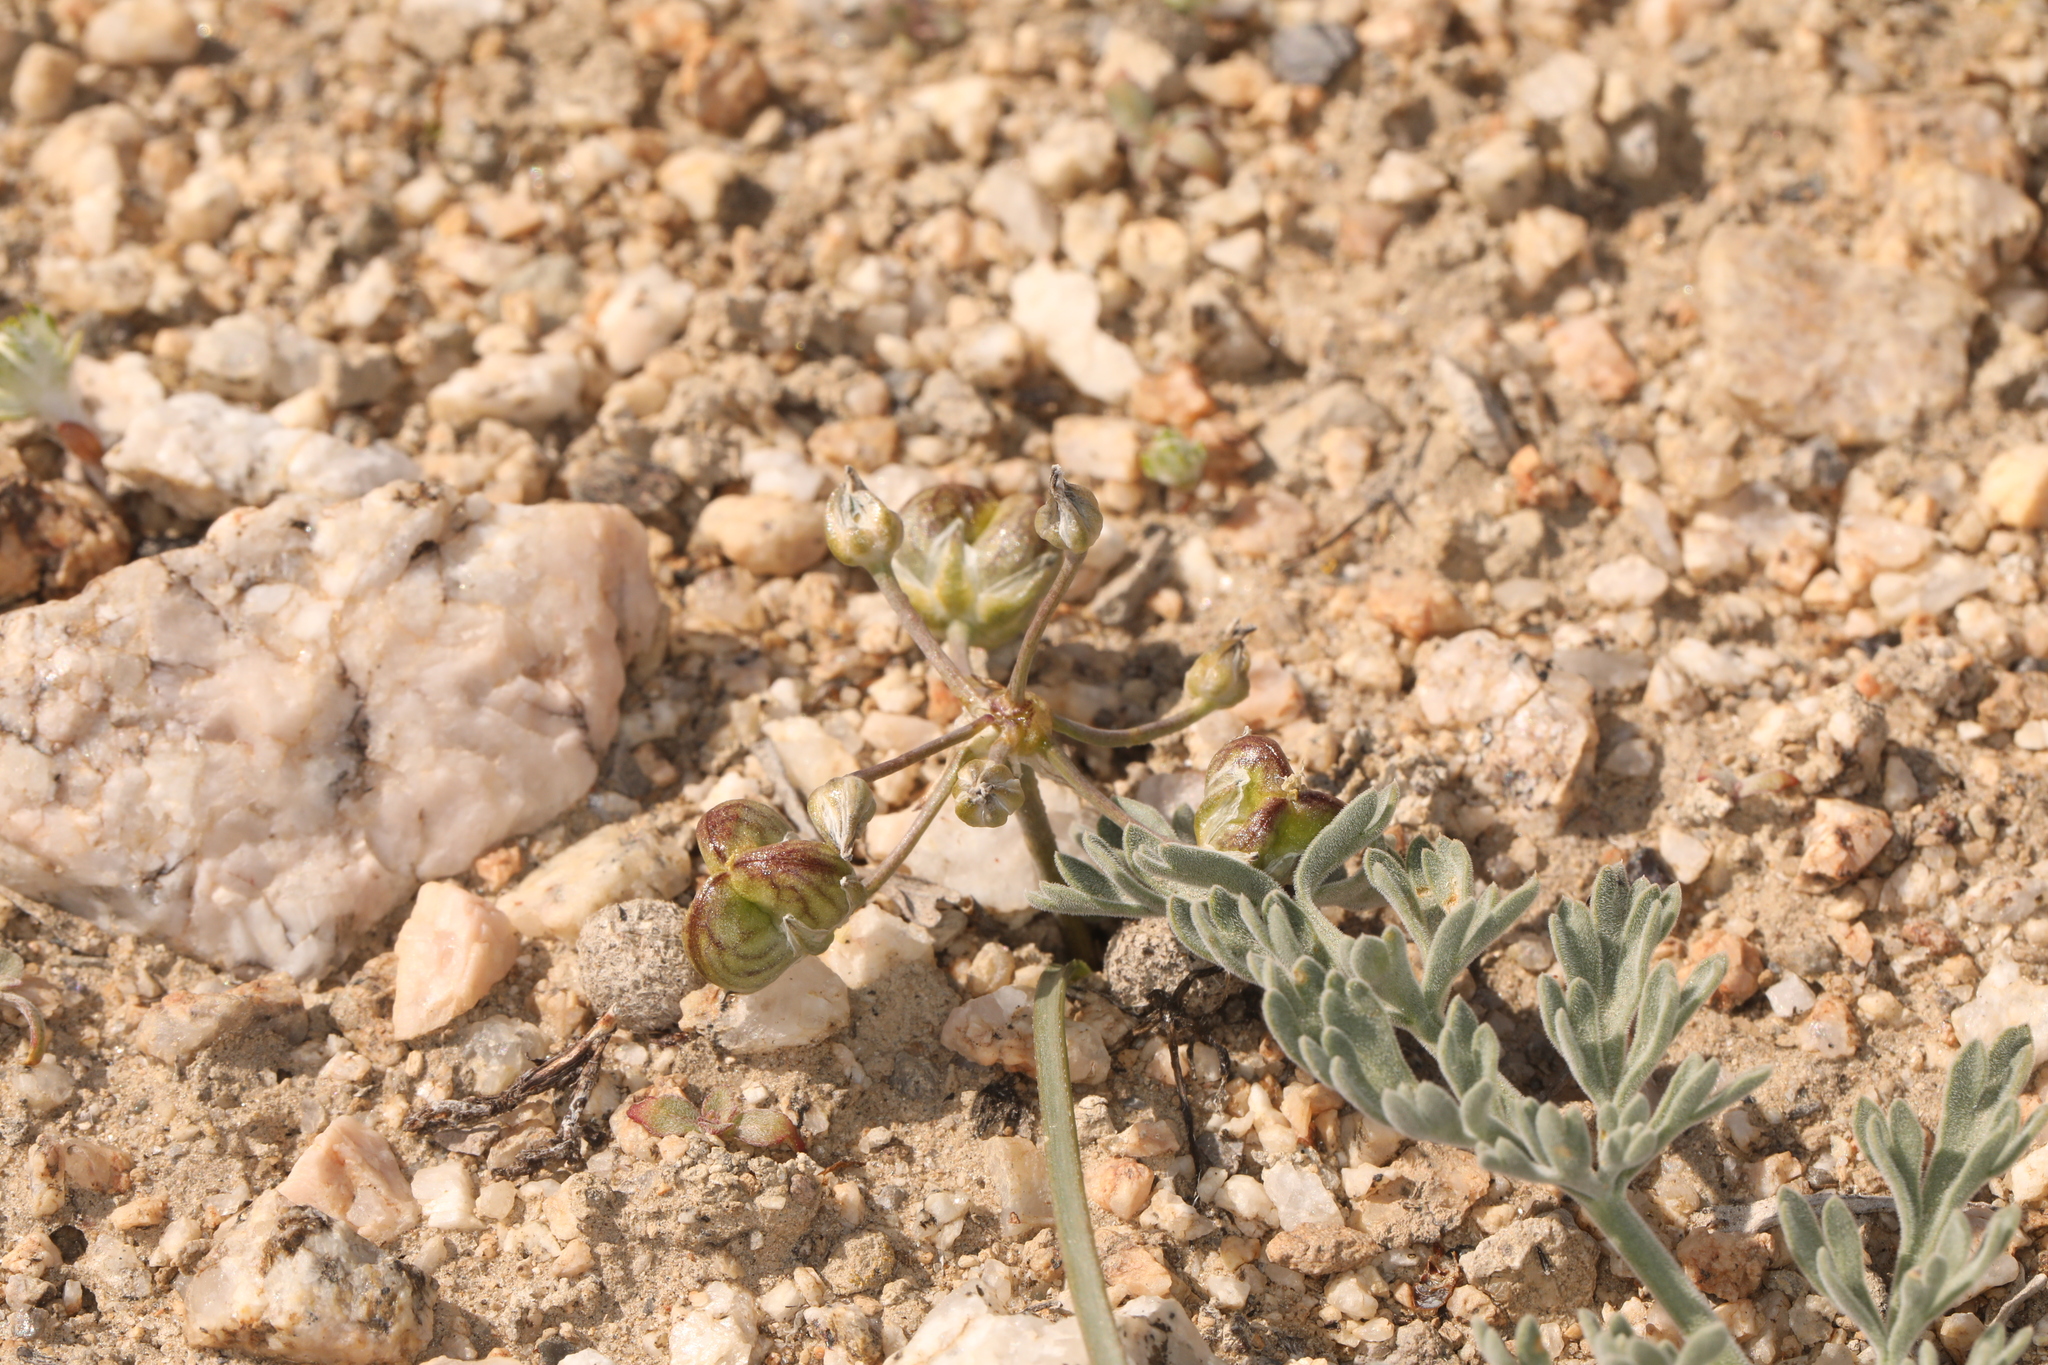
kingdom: Plantae
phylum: Tracheophyta
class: Liliopsida
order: Asparagales
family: Asparagaceae
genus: Muilla
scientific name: Muilla coronata
